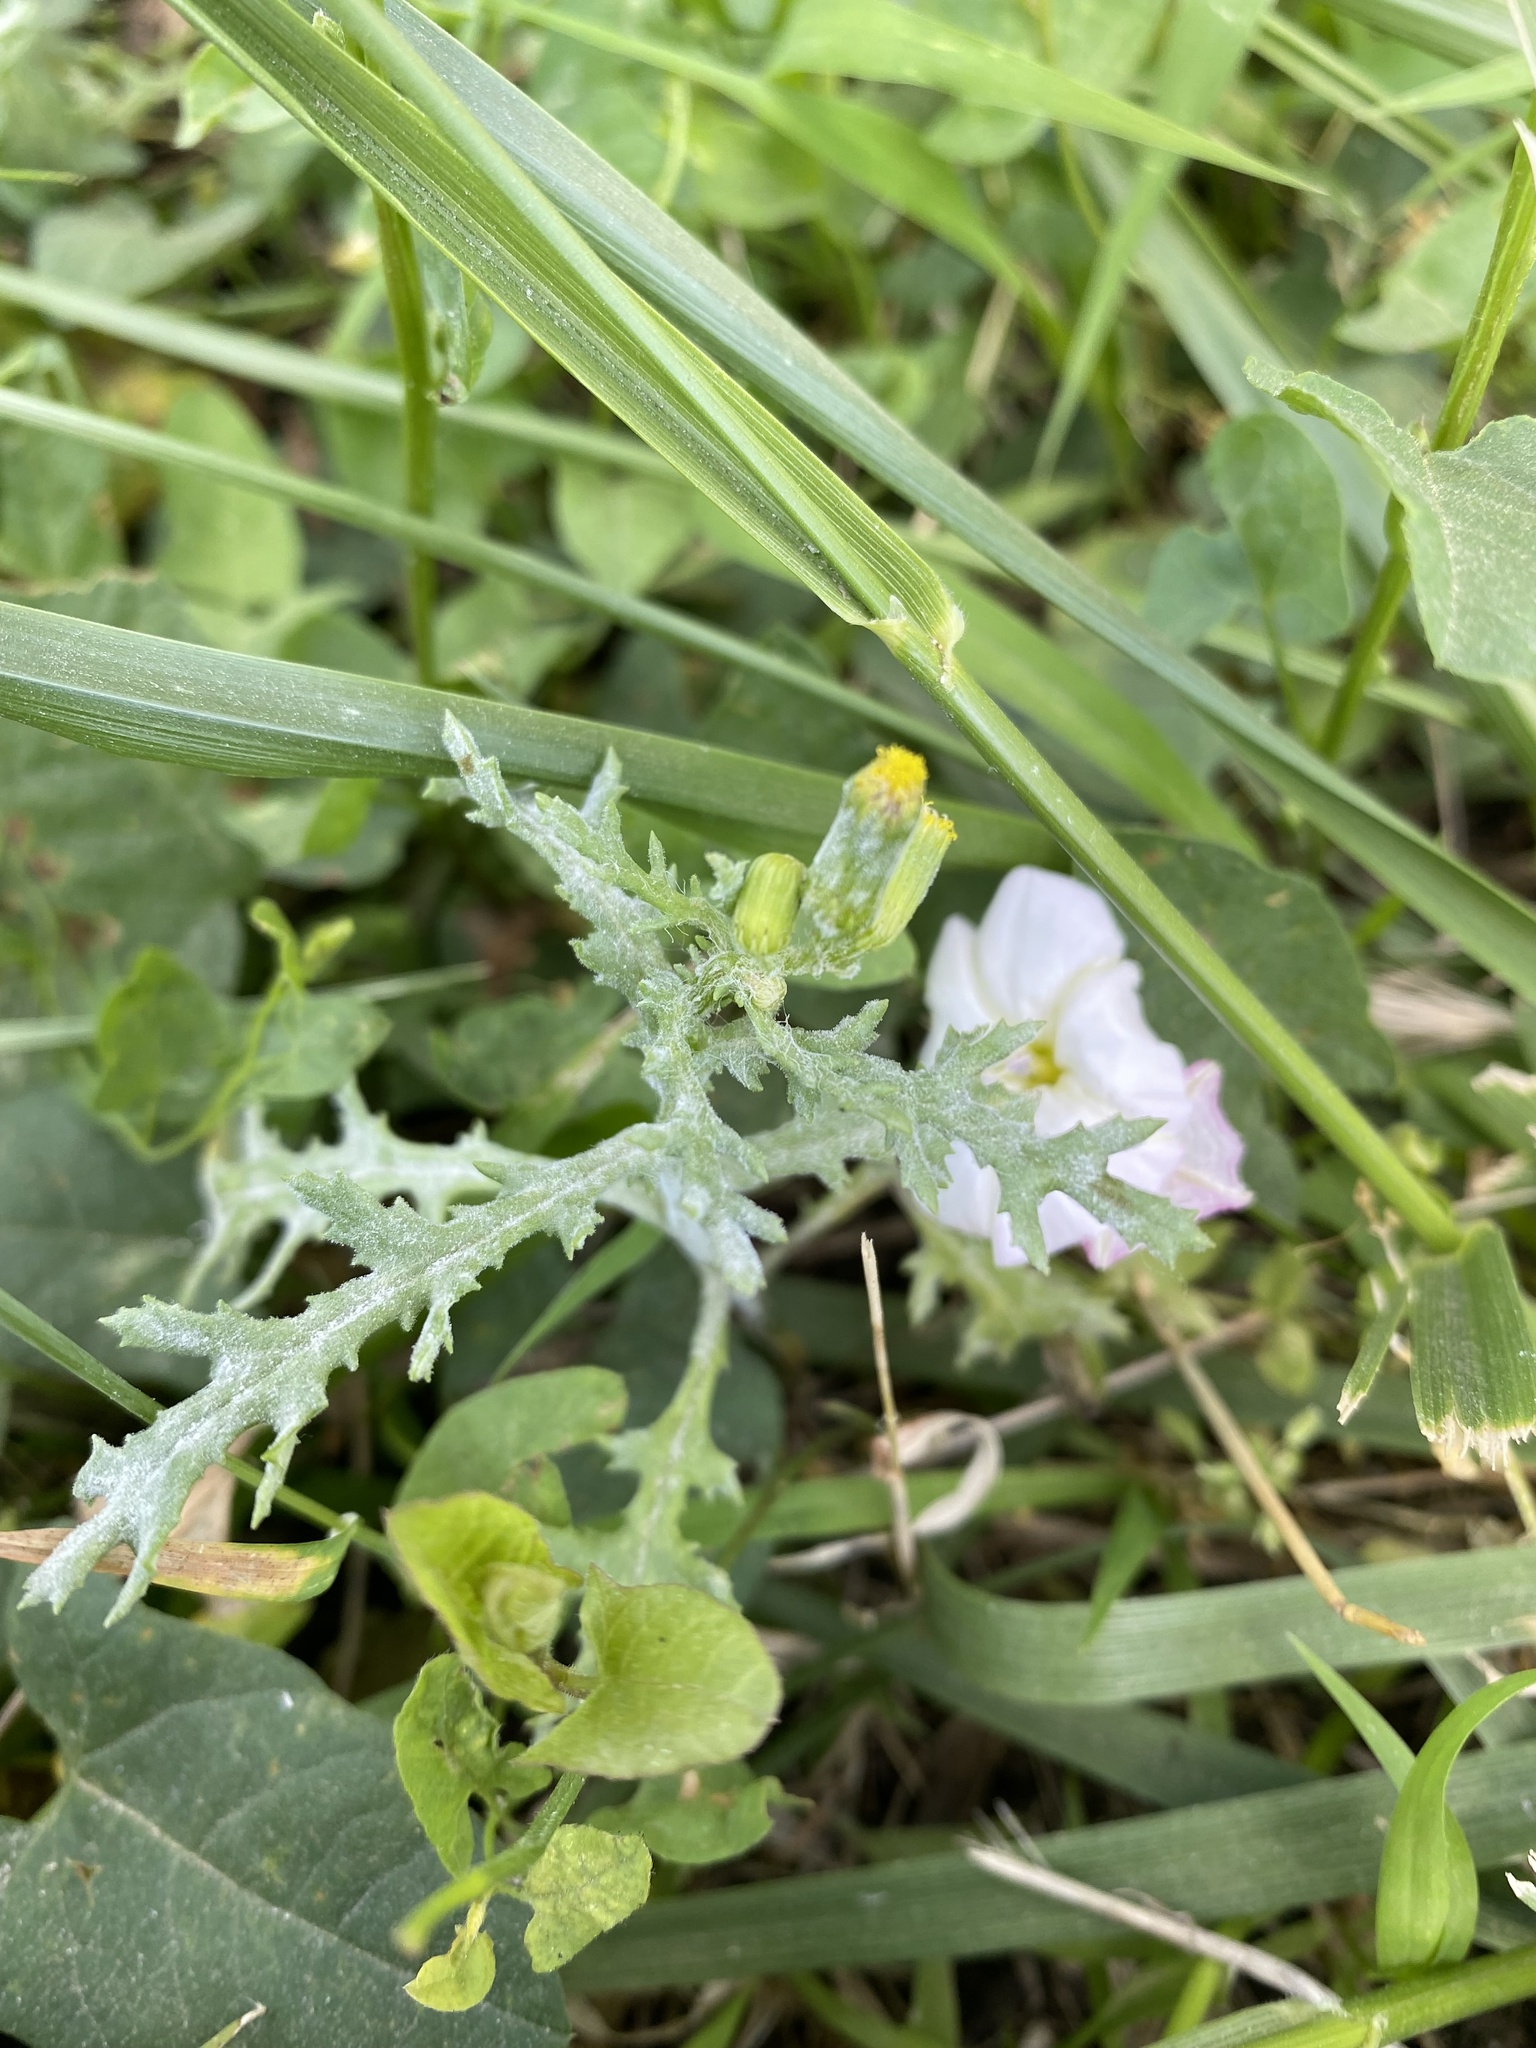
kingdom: Plantae
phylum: Tracheophyta
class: Magnoliopsida
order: Asterales
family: Asteraceae
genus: Senecio
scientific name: Senecio vulgaris
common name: Old-man-in-the-spring
